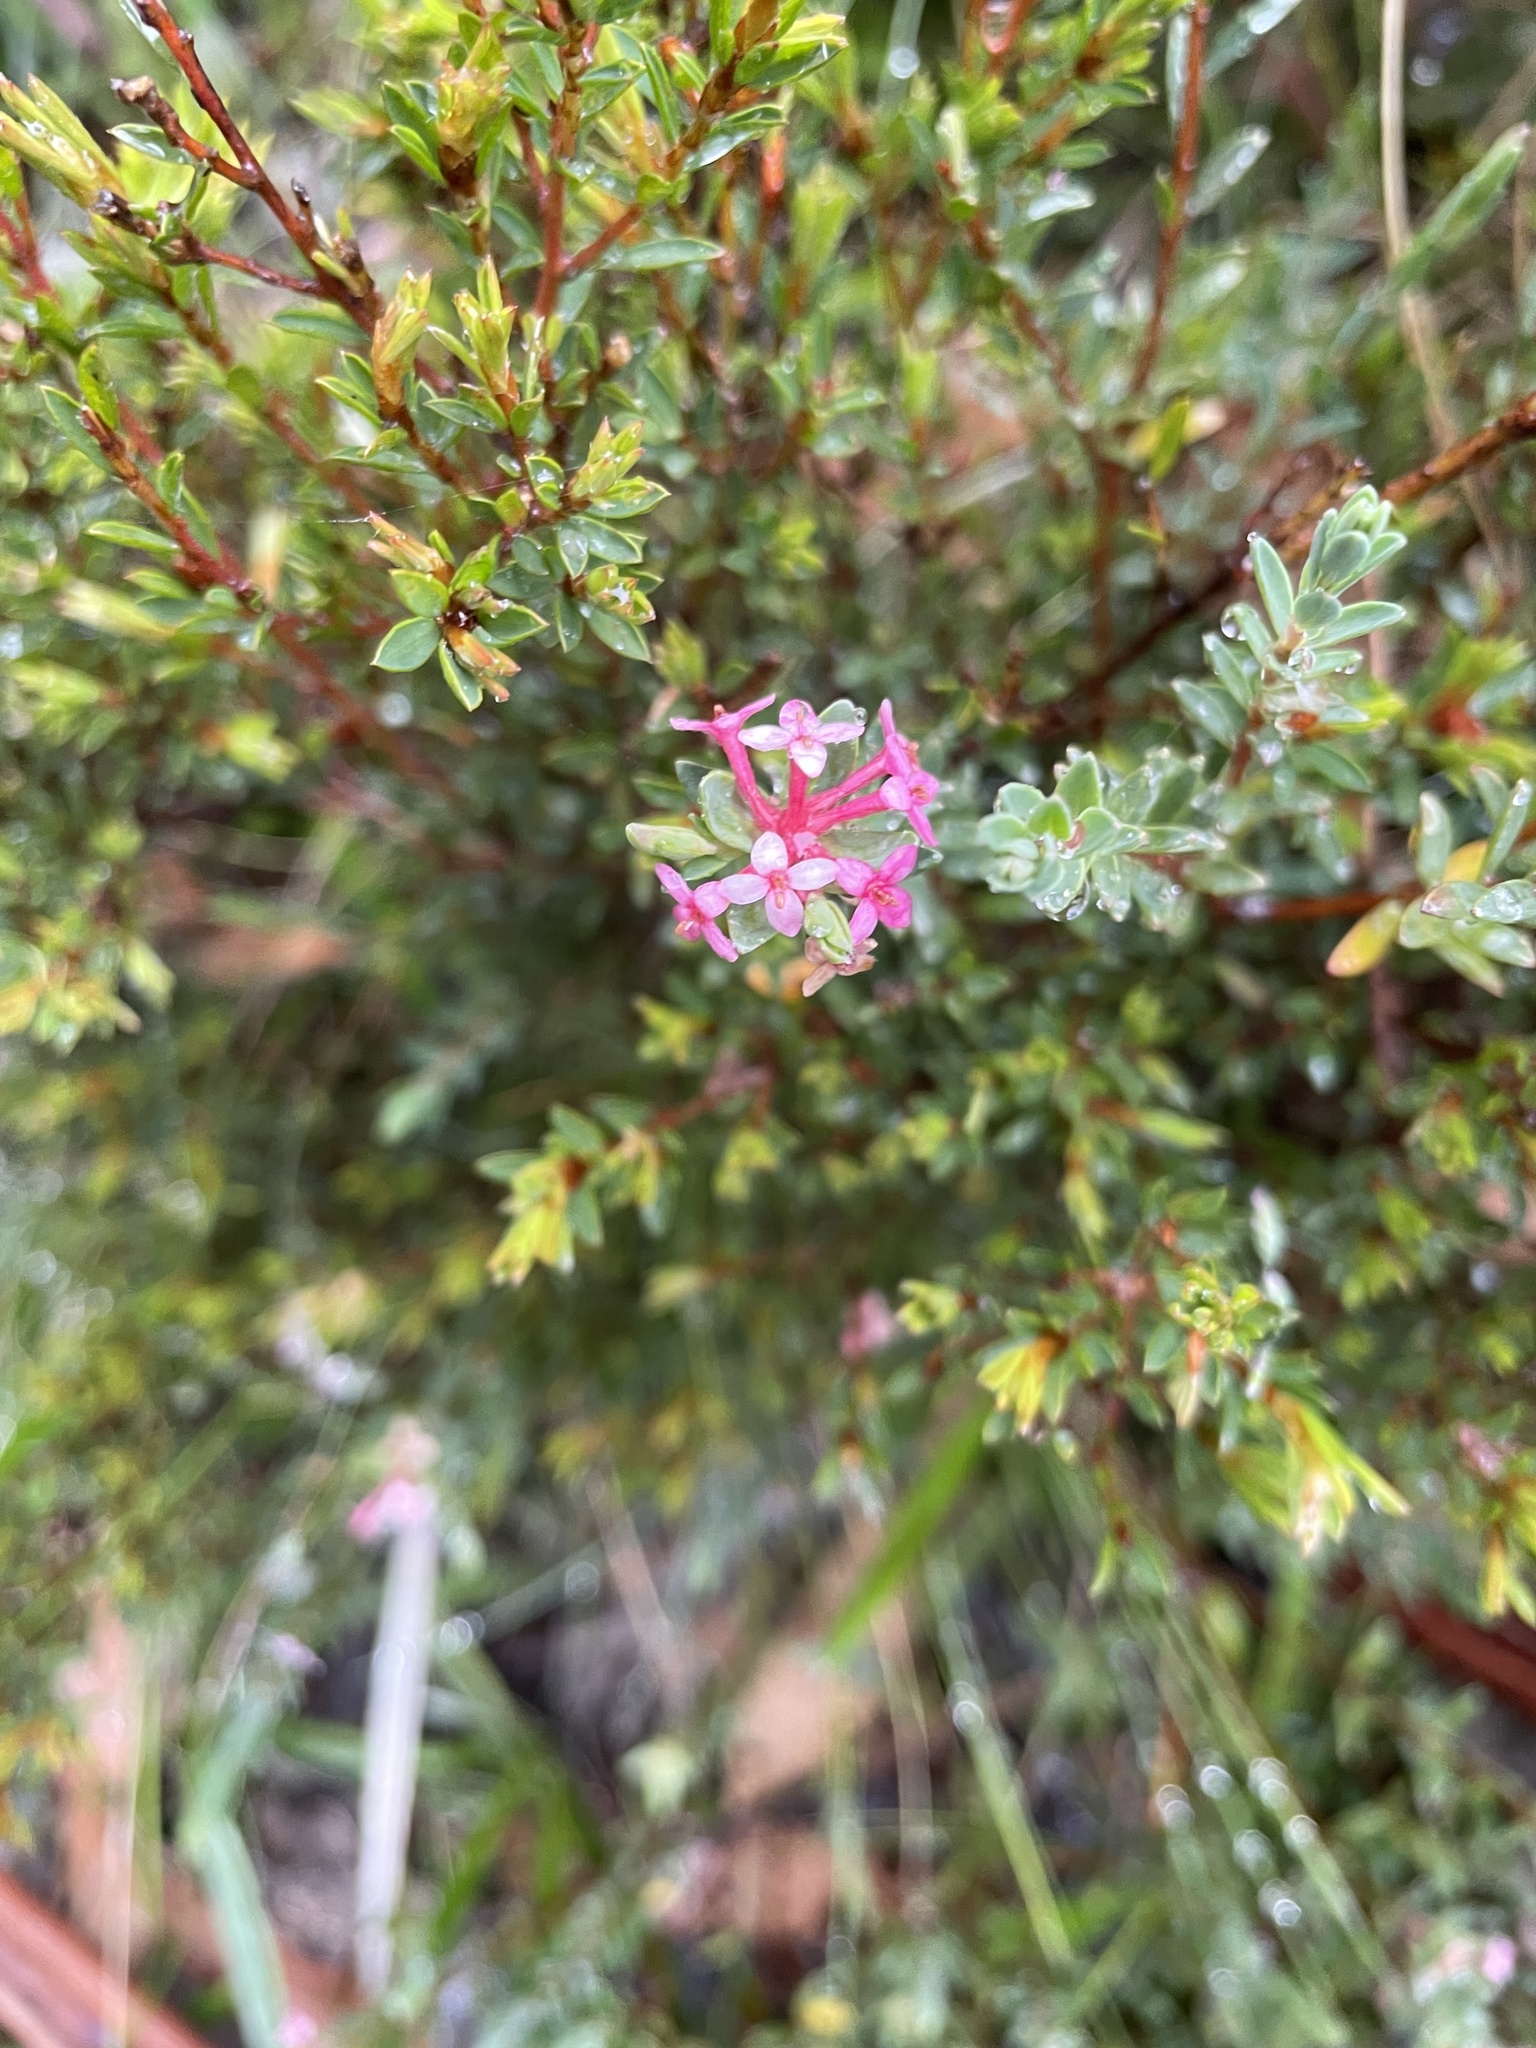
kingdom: Plantae
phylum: Tracheophyta
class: Magnoliopsida
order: Malvales
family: Thymelaeaceae
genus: Pimelea
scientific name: Pimelea alpina
